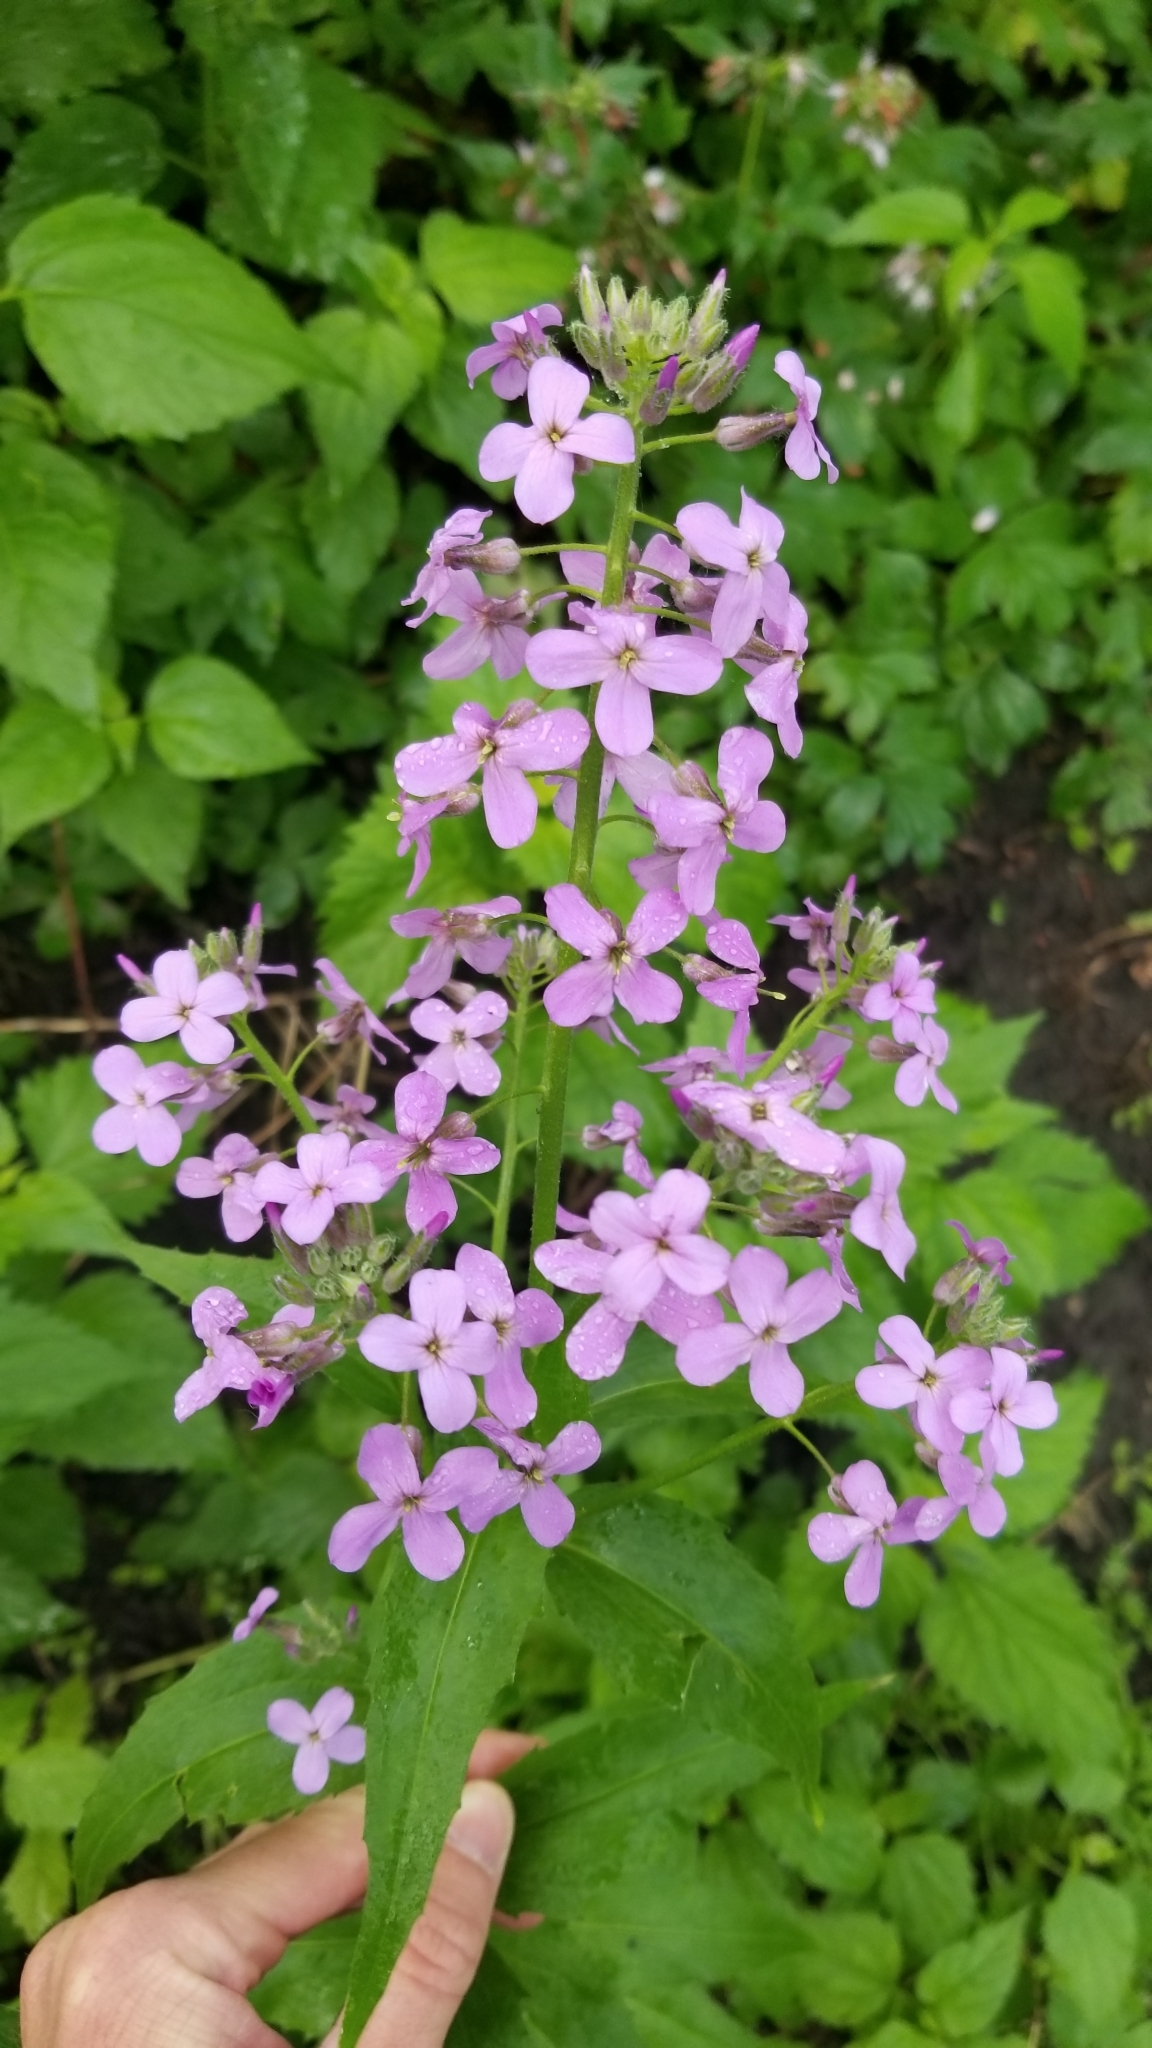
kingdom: Plantae
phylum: Tracheophyta
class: Magnoliopsida
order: Brassicales
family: Brassicaceae
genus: Hesperis
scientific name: Hesperis matronalis
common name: Dame's-violet
